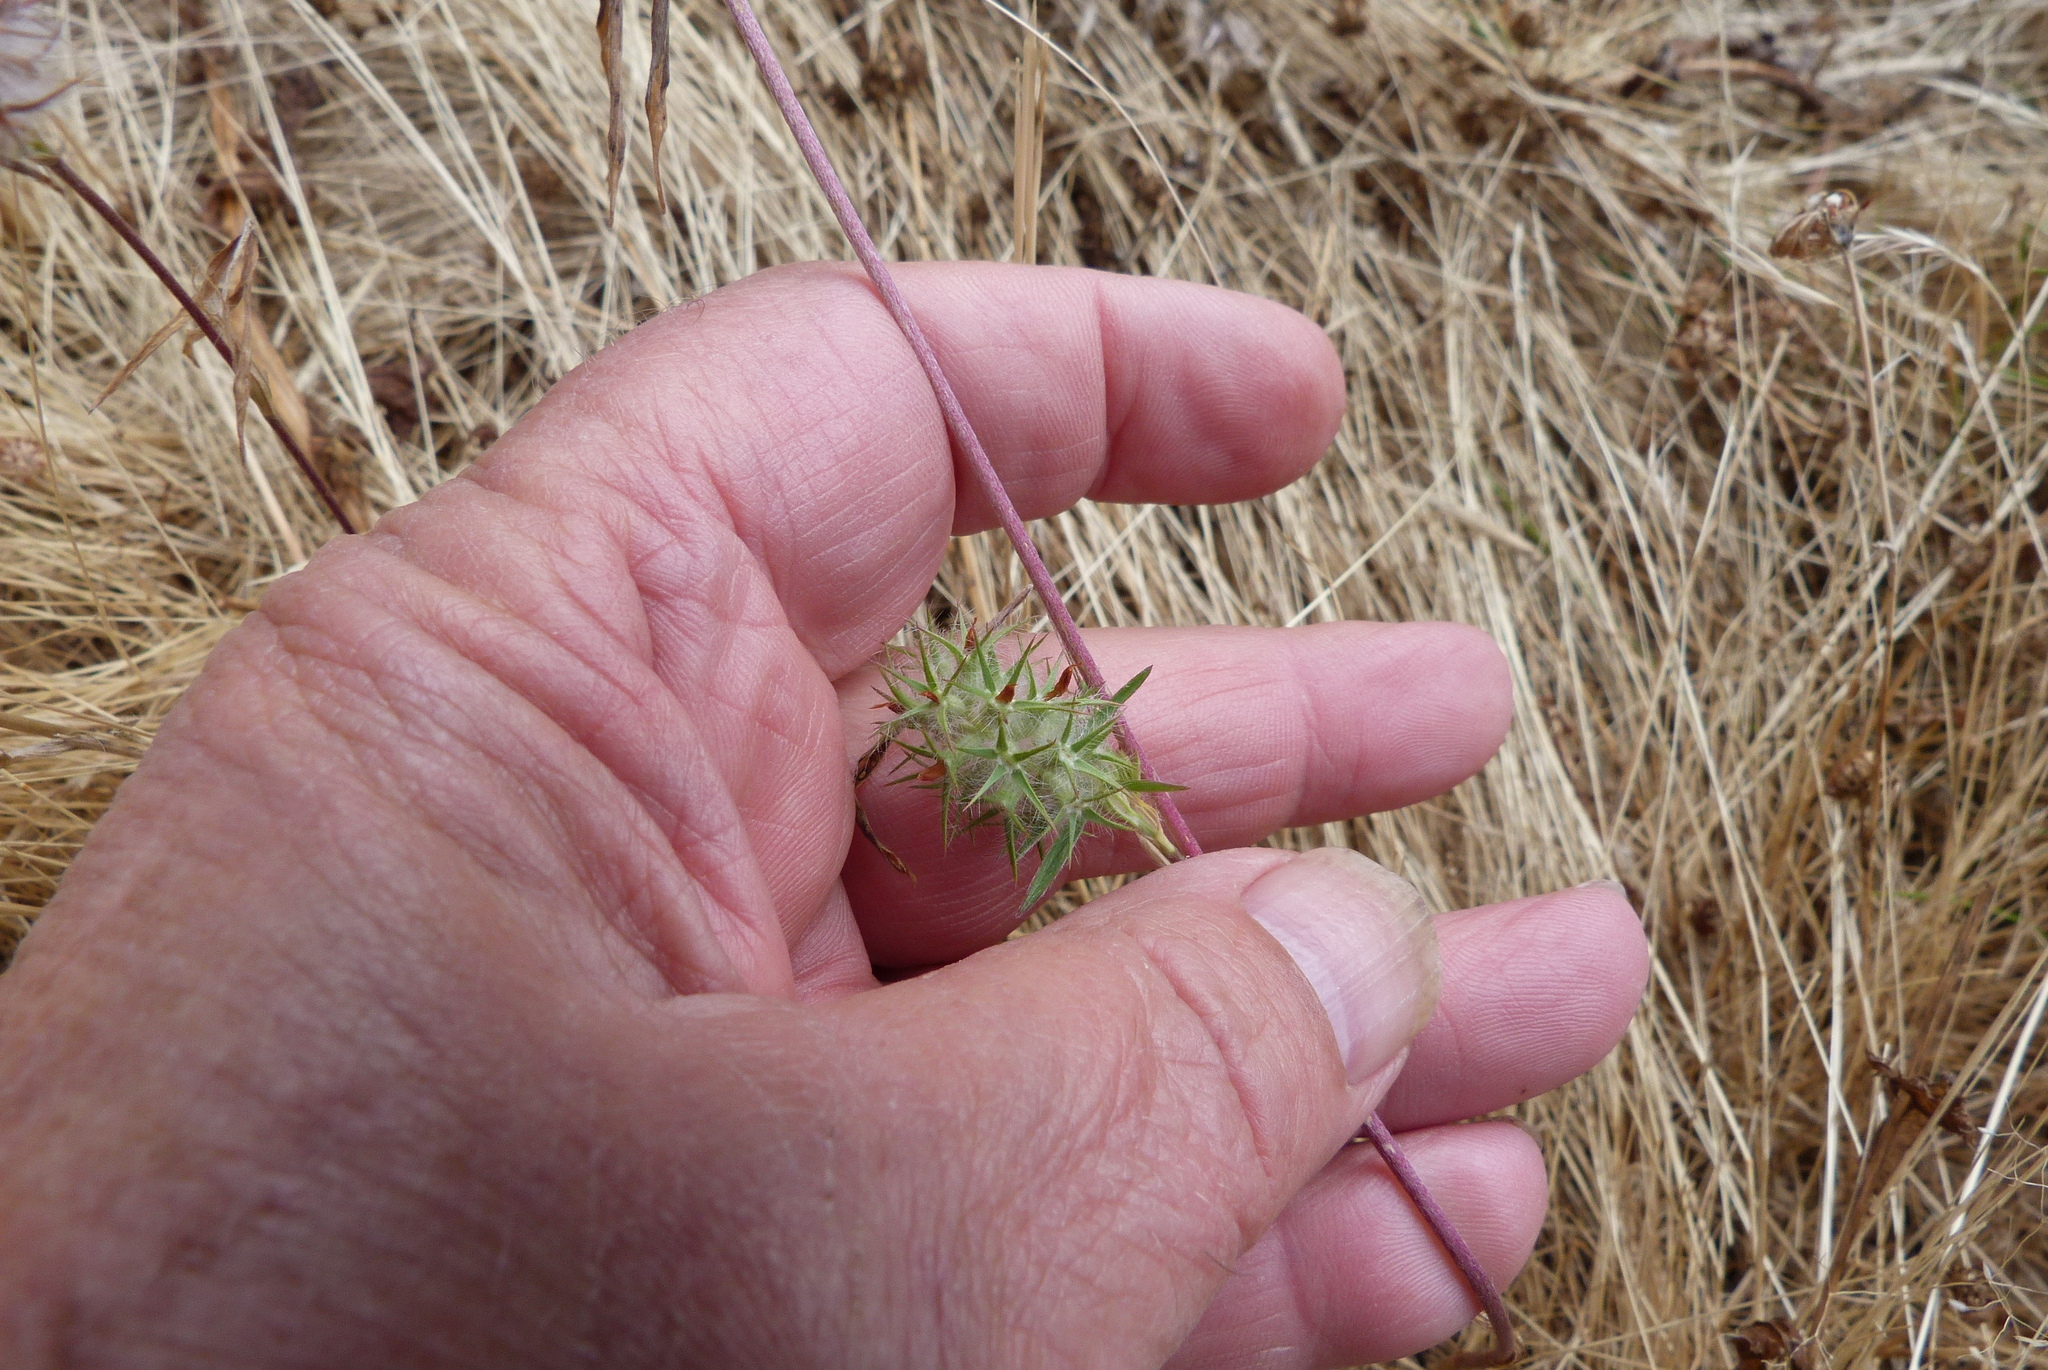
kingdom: Plantae
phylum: Tracheophyta
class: Magnoliopsida
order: Fabales
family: Fabaceae
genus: Trifolium
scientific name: Trifolium stellatum
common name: Starry clover
